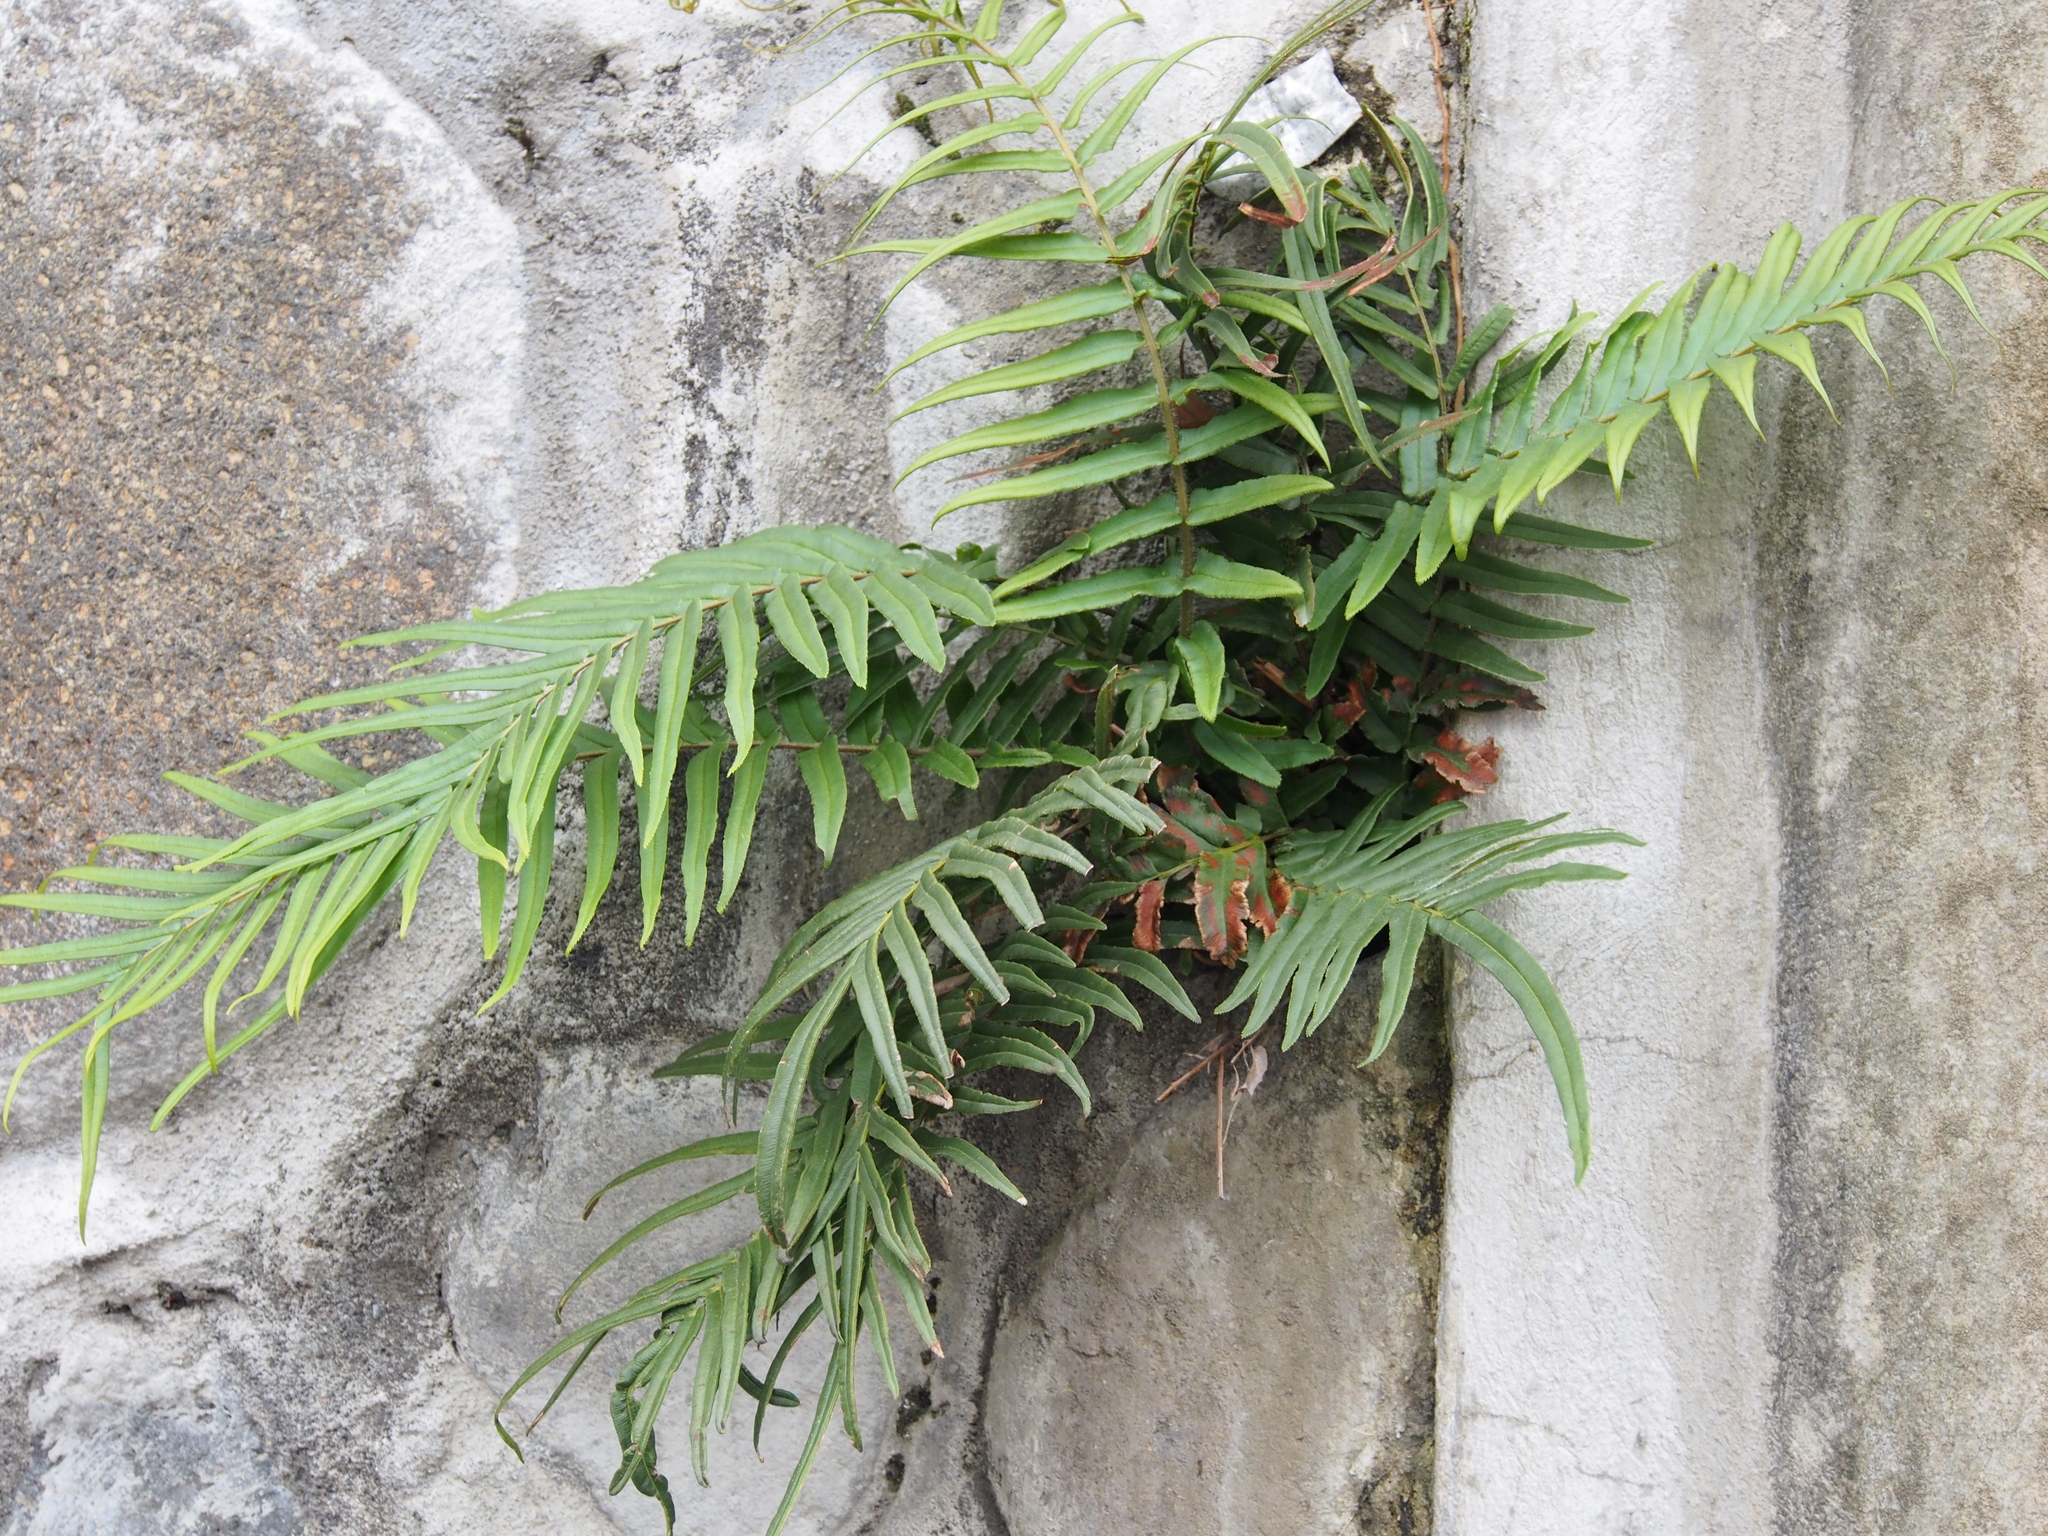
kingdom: Plantae
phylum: Tracheophyta
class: Polypodiopsida
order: Polypodiales
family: Pteridaceae
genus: Pteris
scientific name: Pteris vittata
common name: Ladder brake
